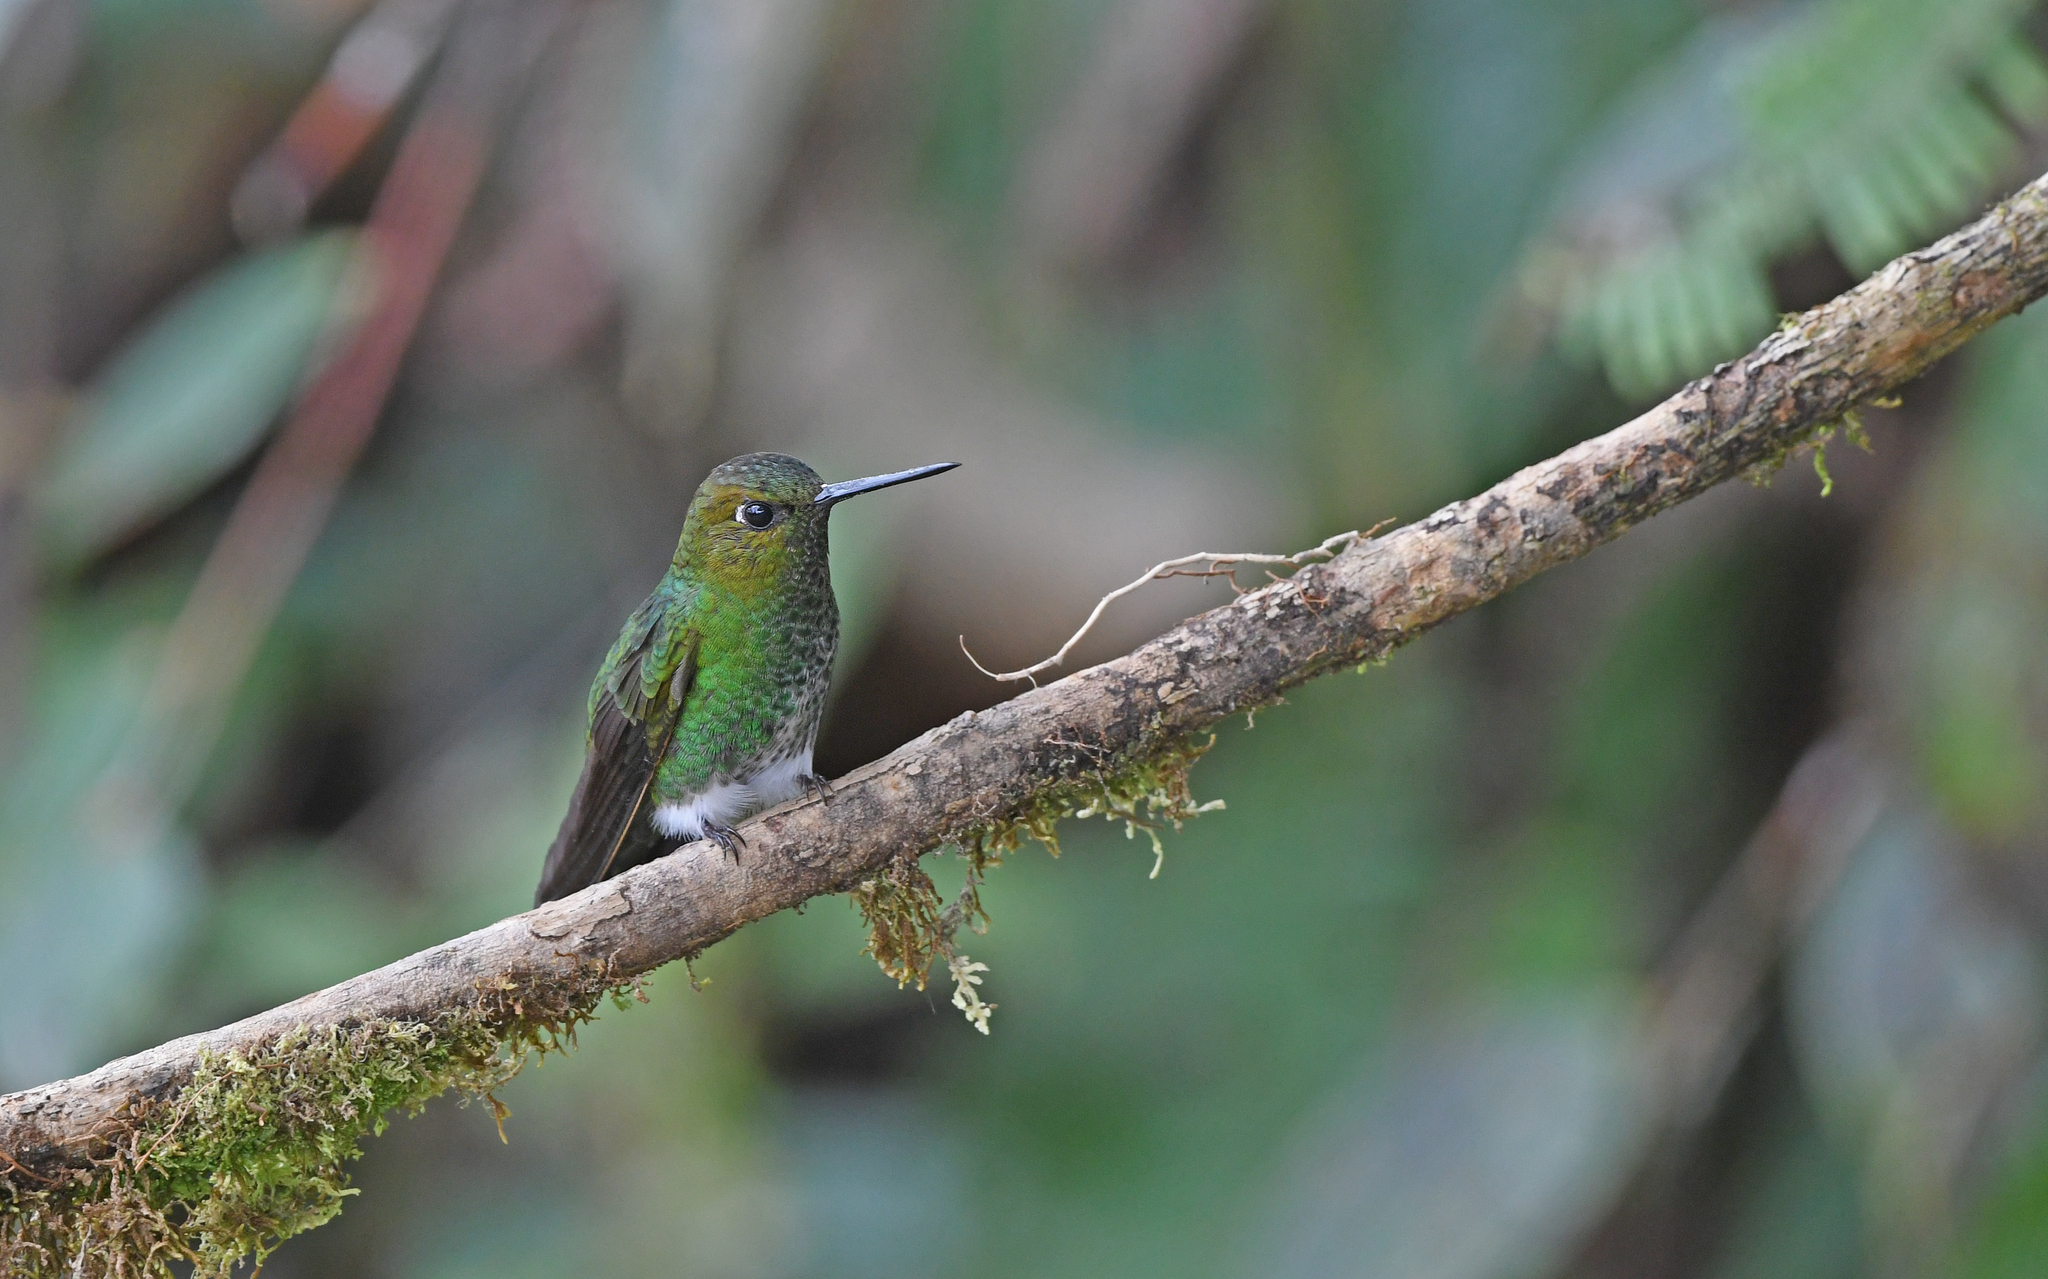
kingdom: Animalia
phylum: Chordata
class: Aves
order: Apodiformes
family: Trochilidae
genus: Haplophaedia
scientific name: Haplophaedia aureliae
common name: Greenish puffleg
